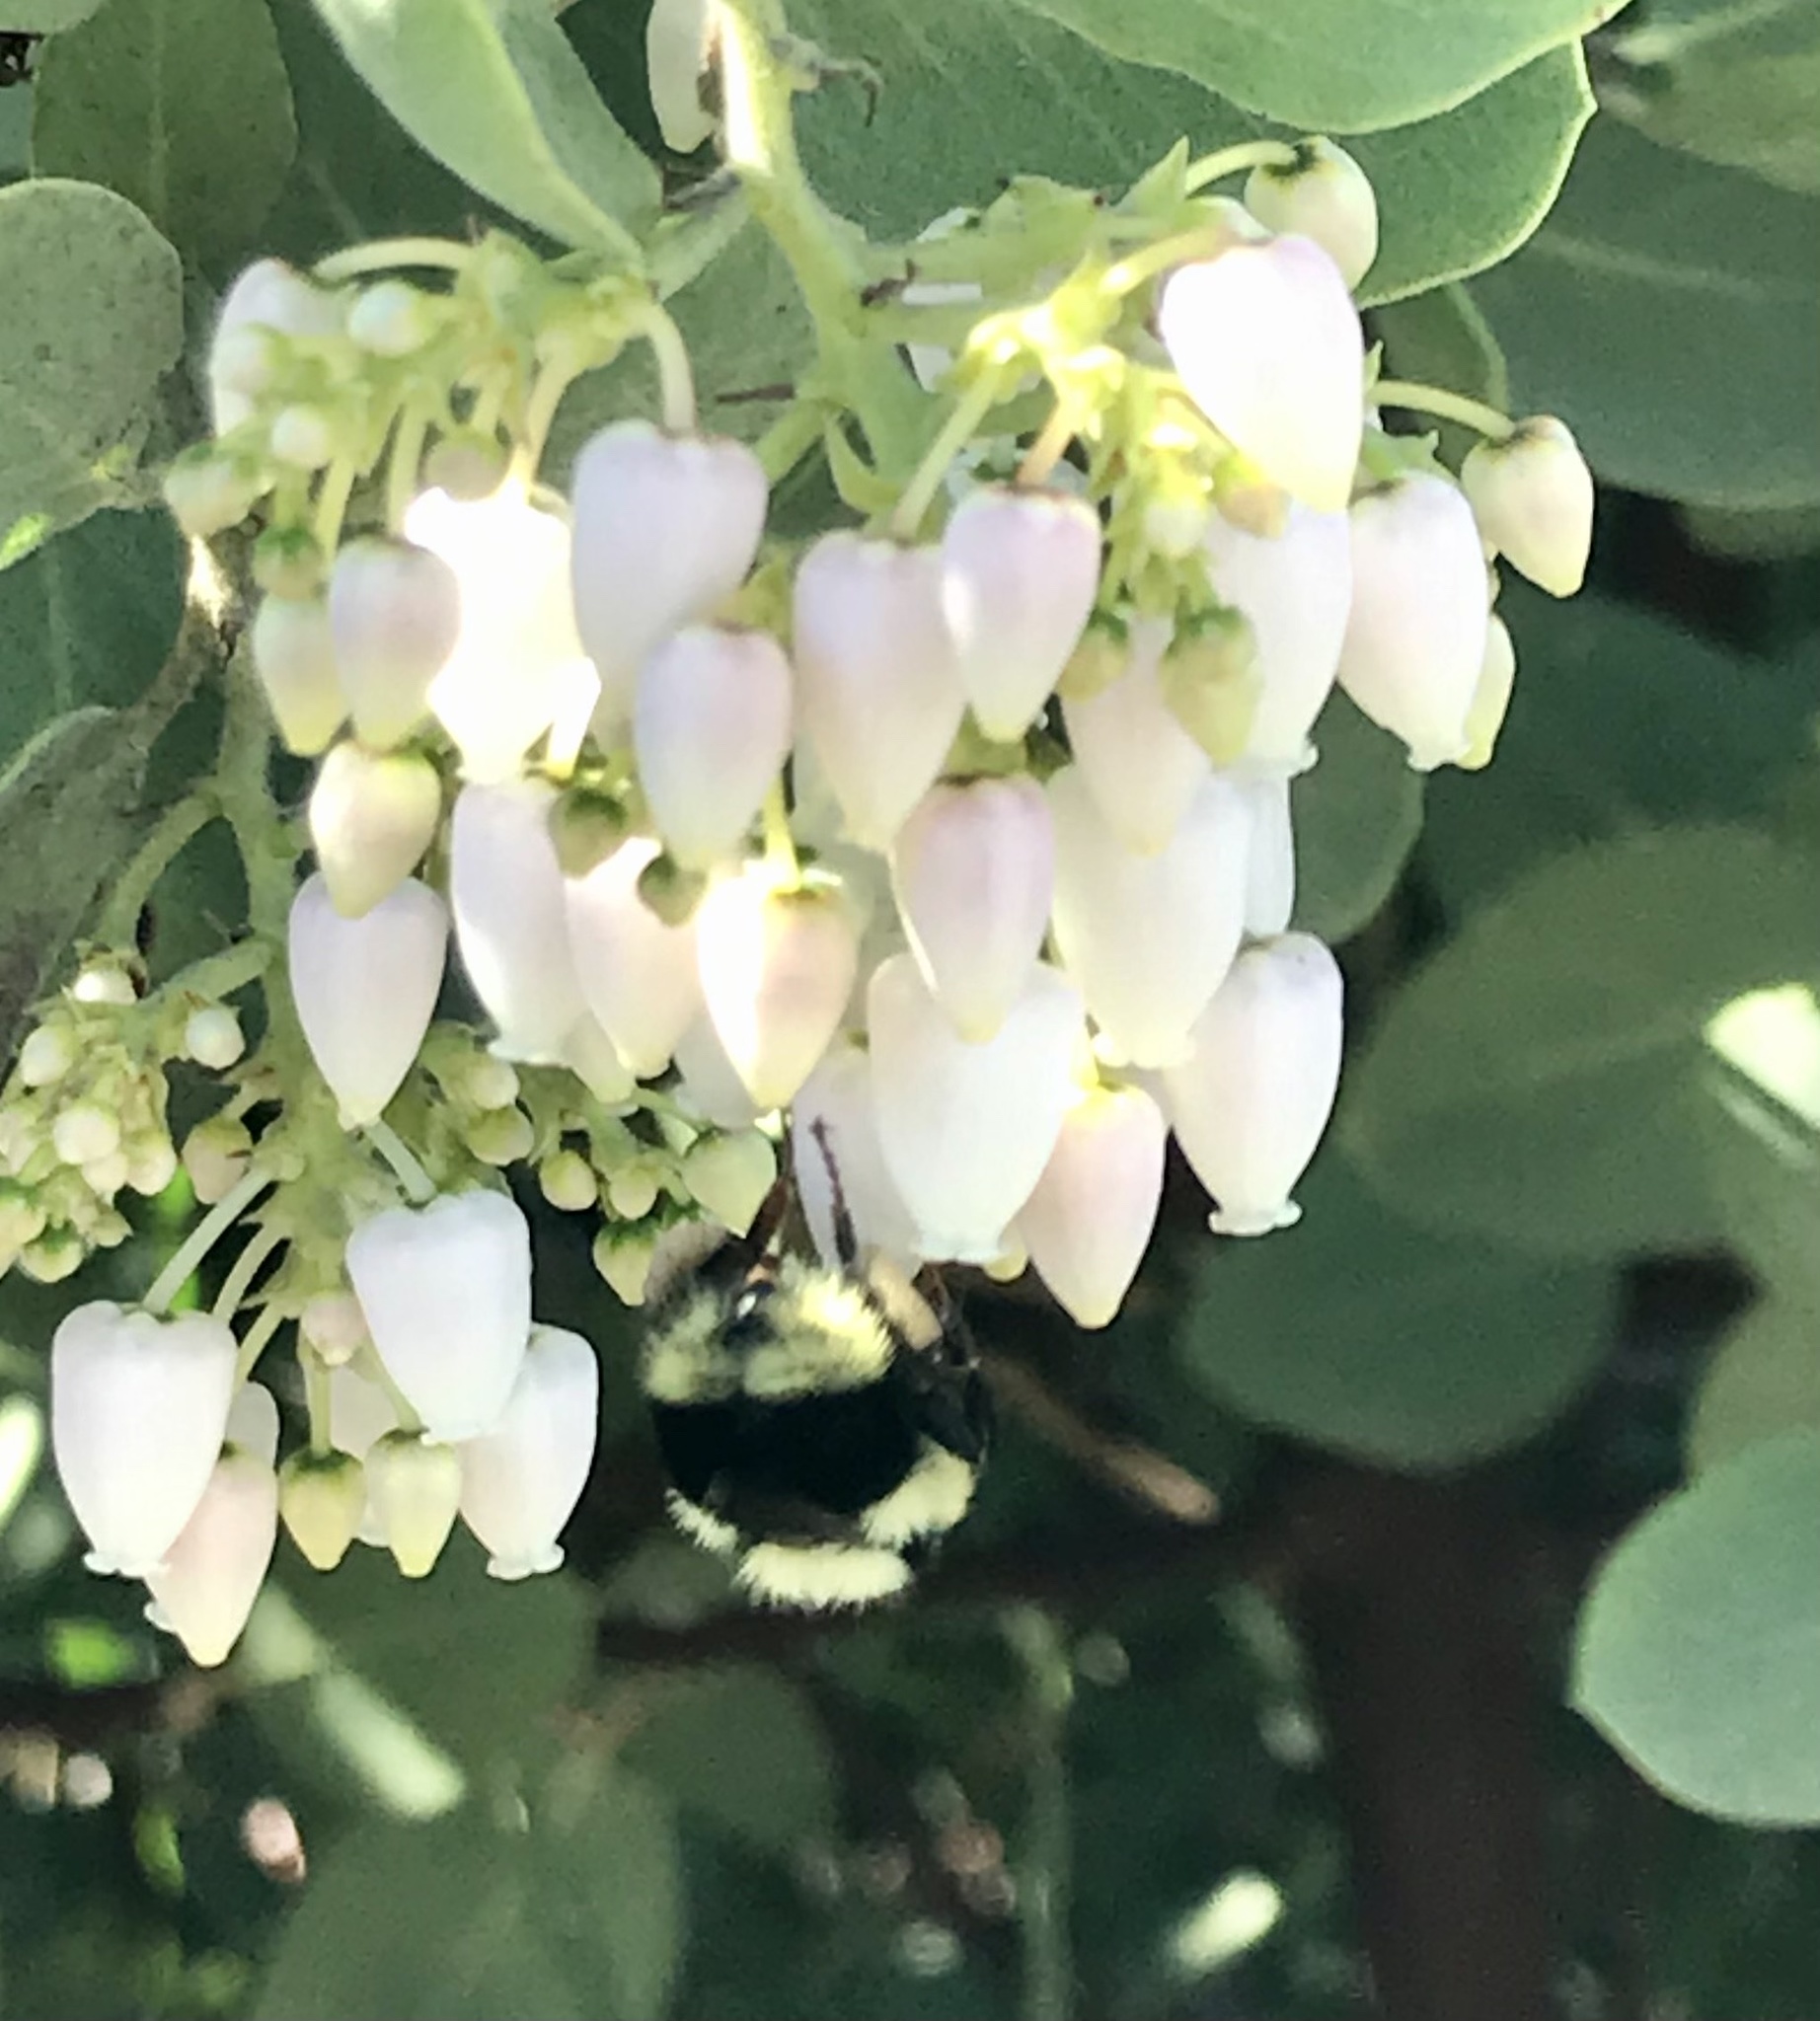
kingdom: Animalia
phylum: Arthropoda
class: Insecta
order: Hymenoptera
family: Apidae
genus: Bombus
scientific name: Bombus melanopygus
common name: Black tail bumble bee
